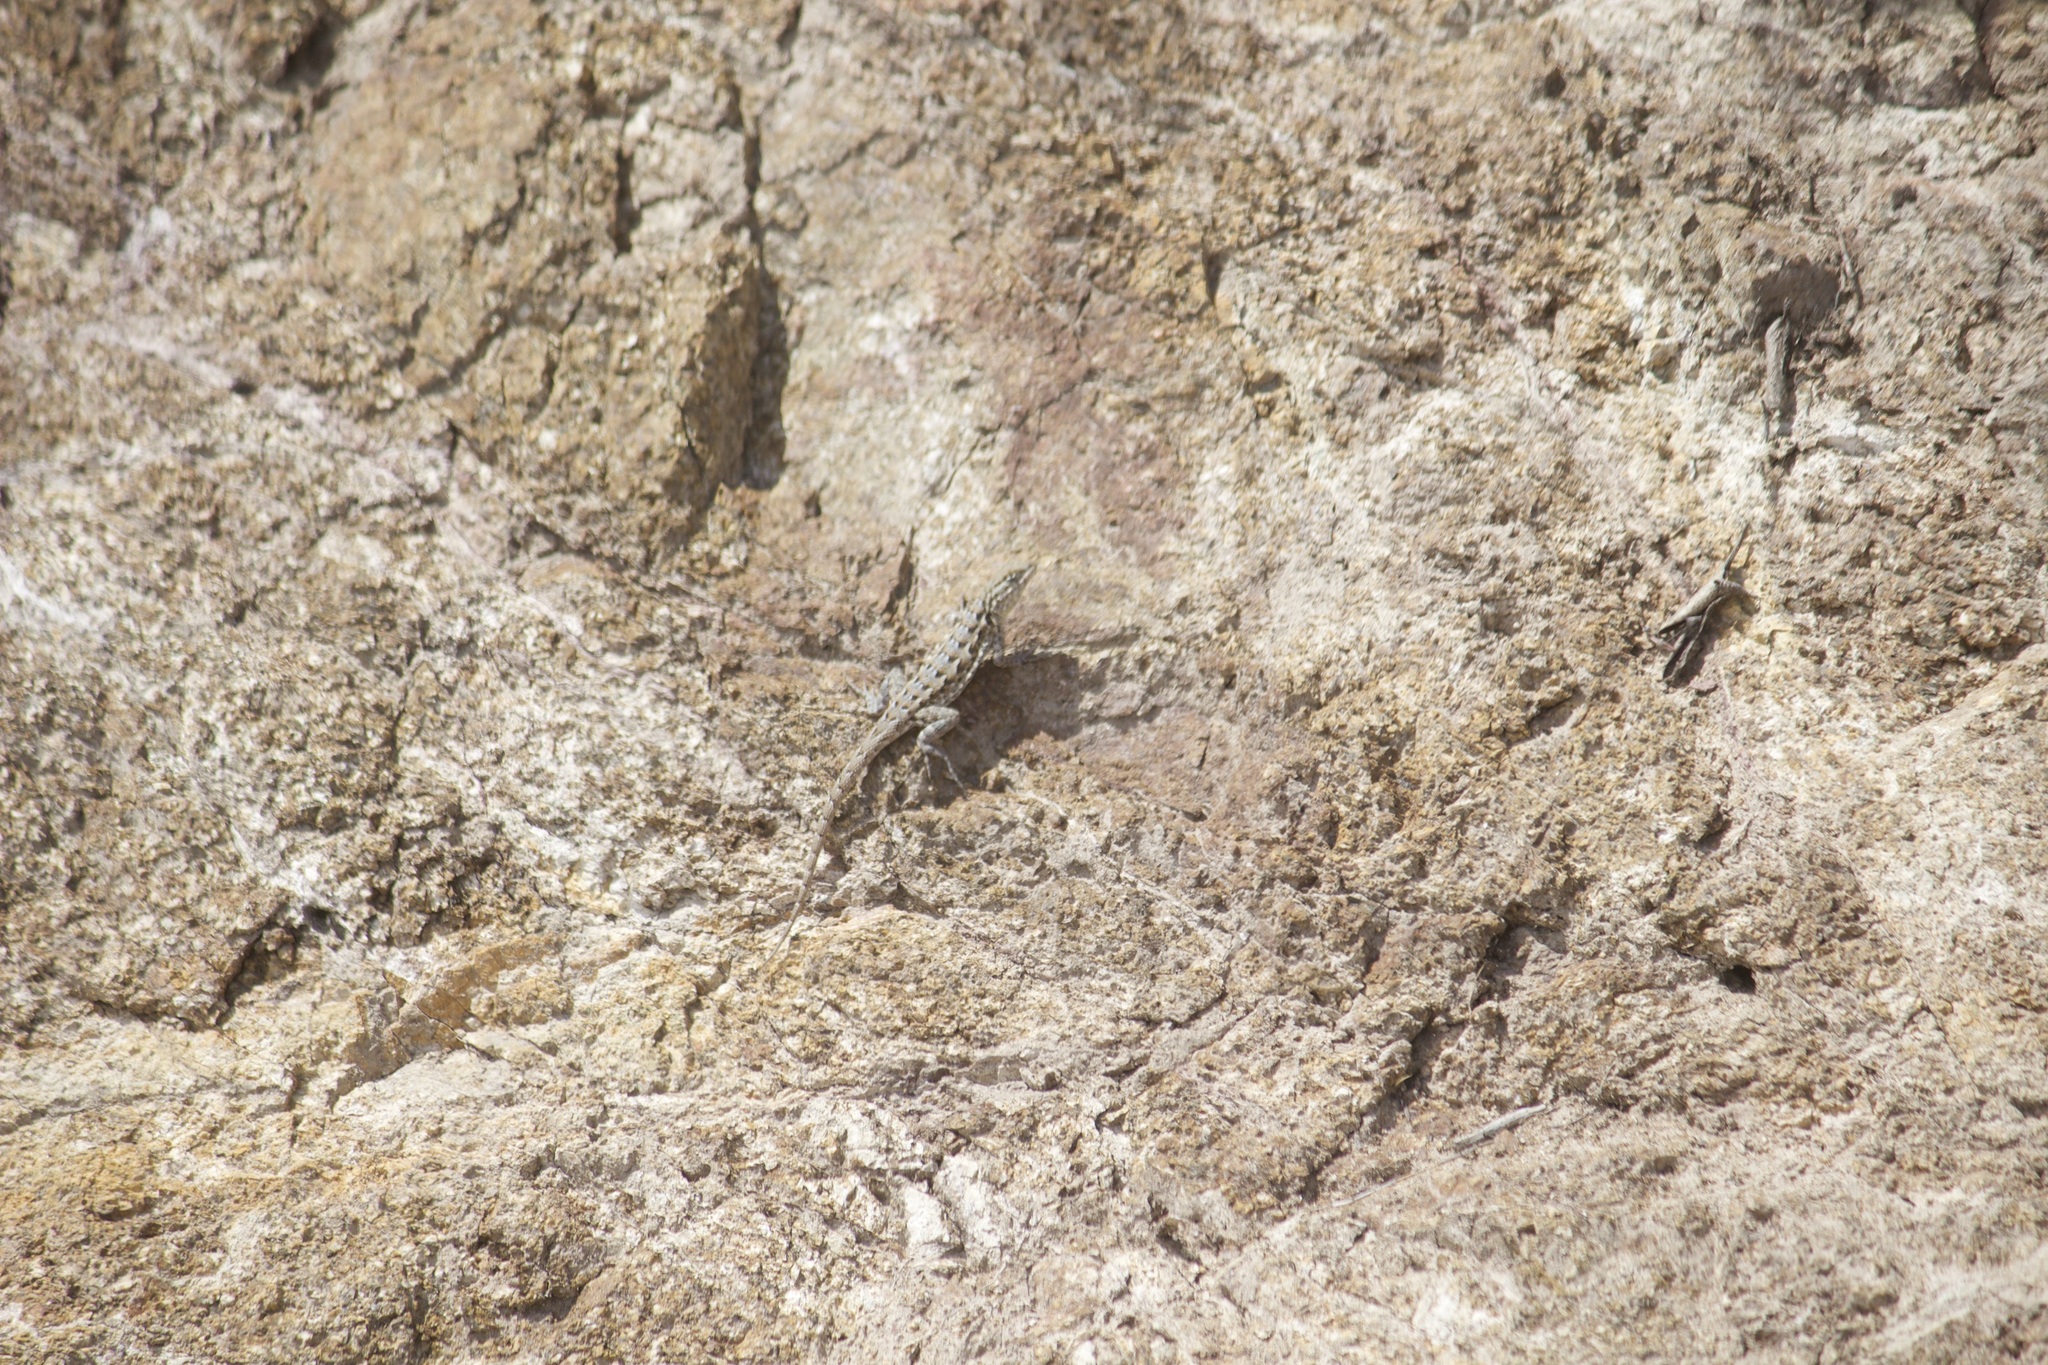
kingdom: Animalia
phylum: Chordata
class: Squamata
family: Phrynosomatidae
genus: Uta
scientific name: Uta stansburiana
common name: Side-blotched lizard
